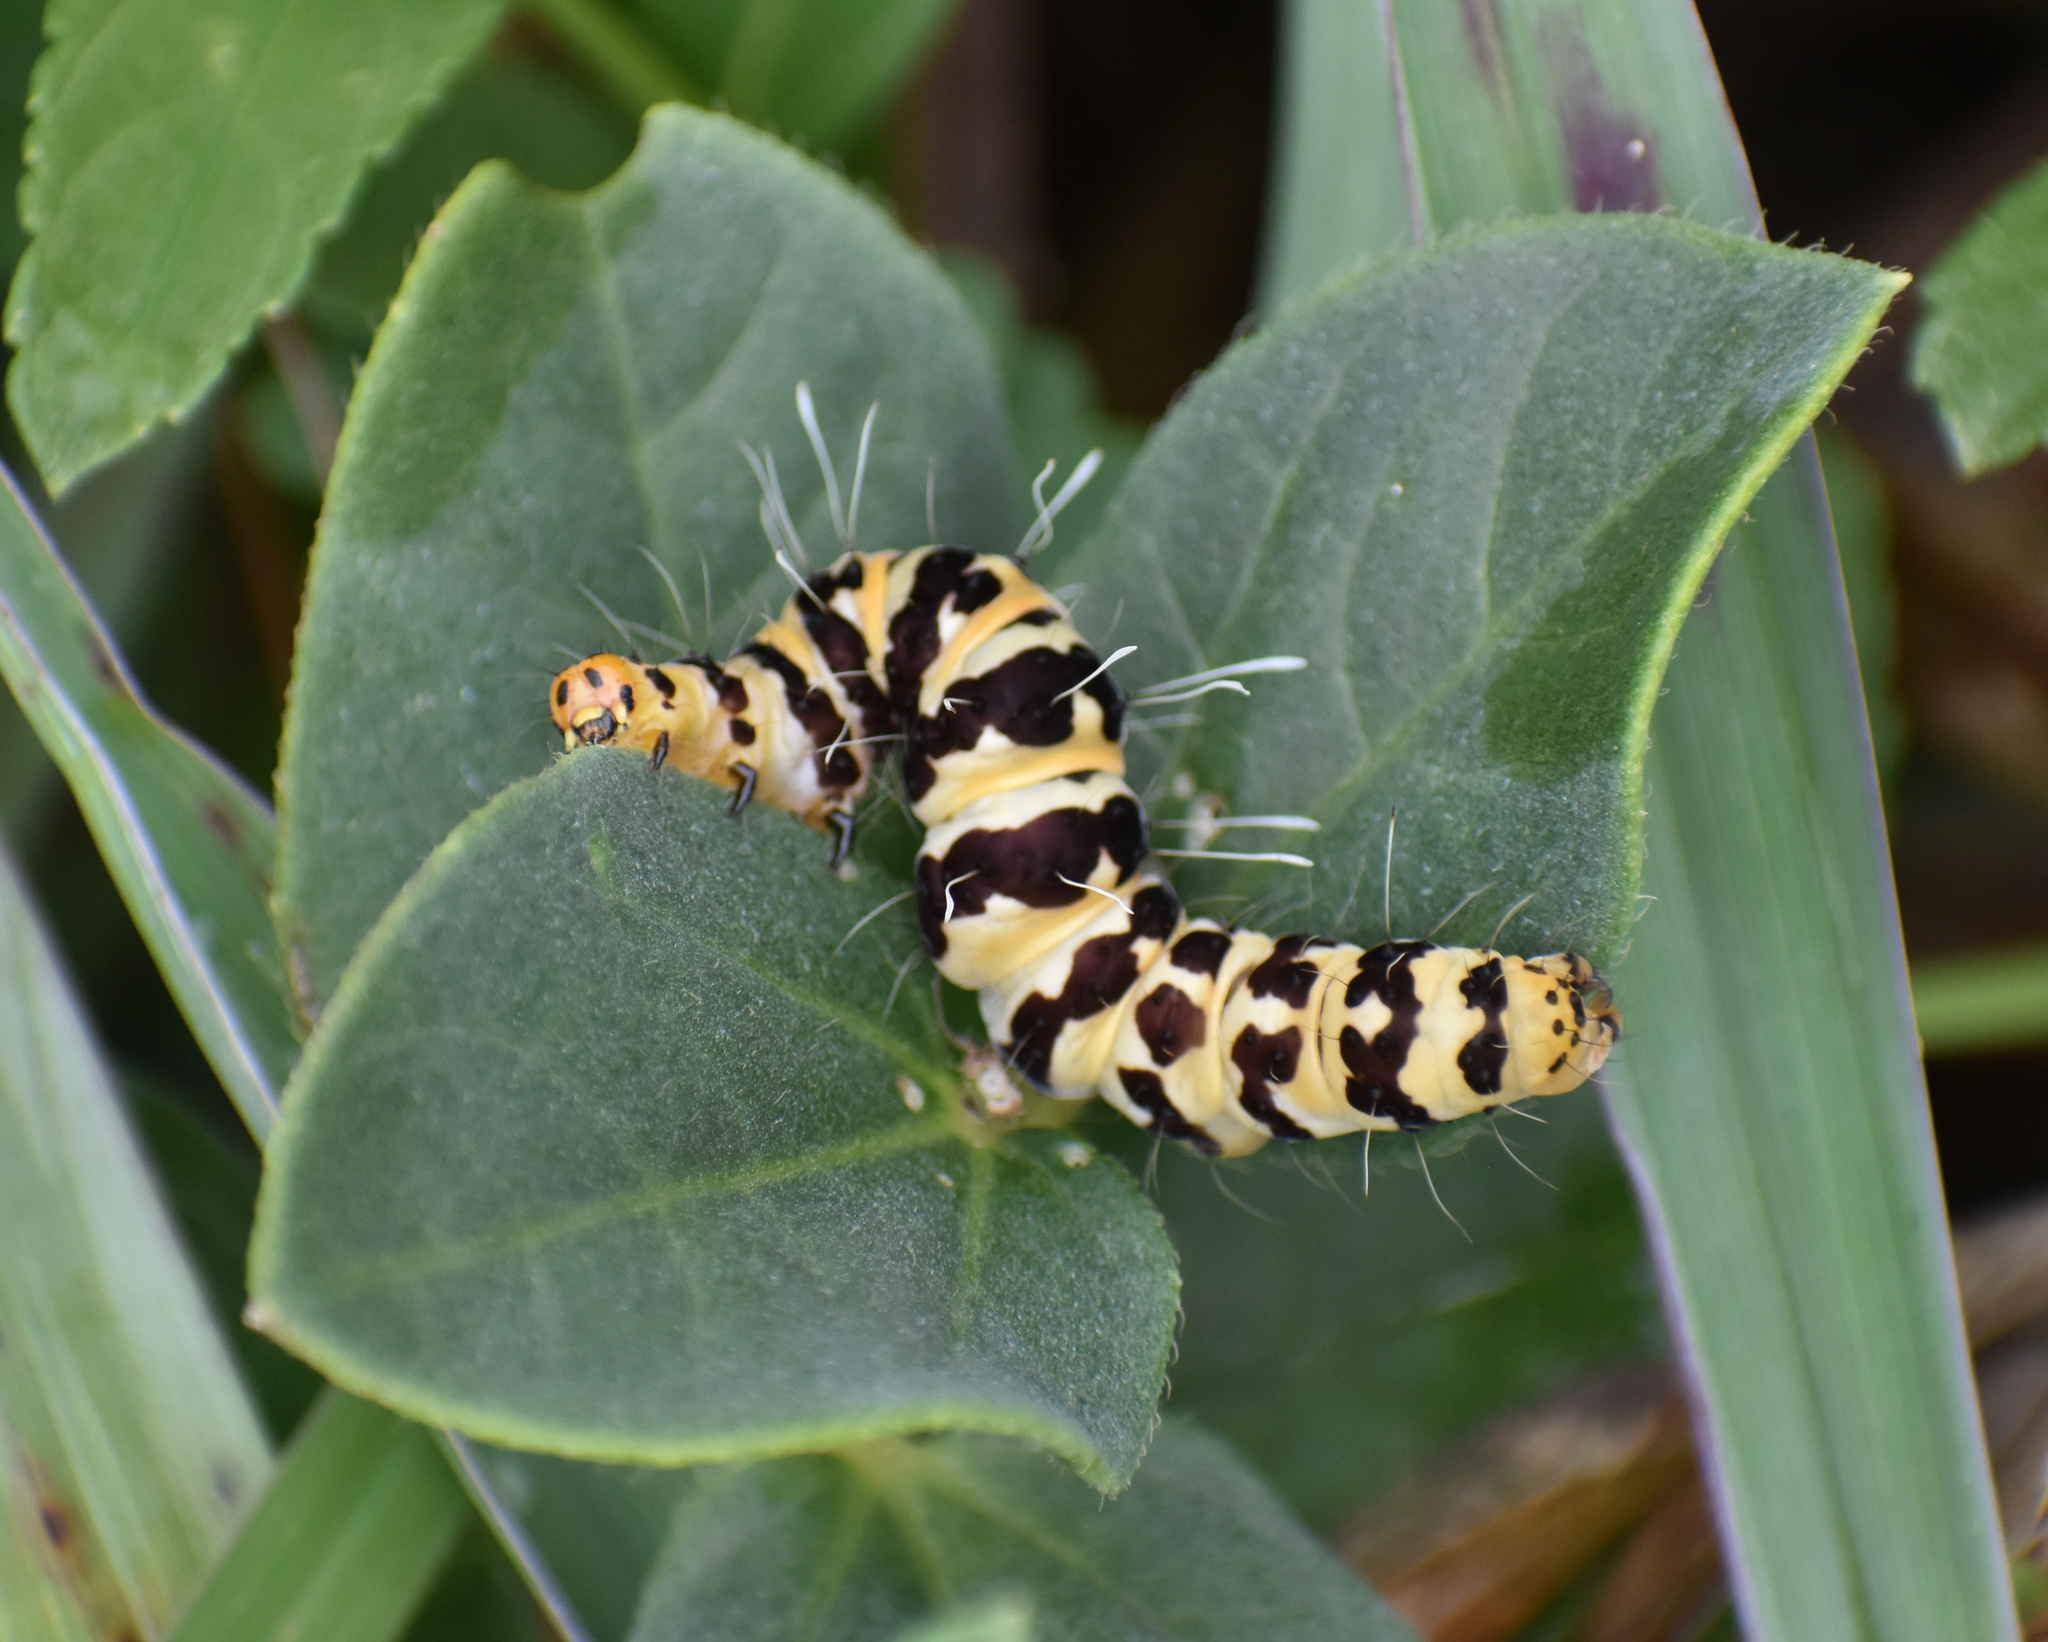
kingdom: Animalia
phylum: Arthropoda
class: Insecta
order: Lepidoptera
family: Erebidae
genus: Rhanidophora
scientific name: Rhanidophora phedonia
